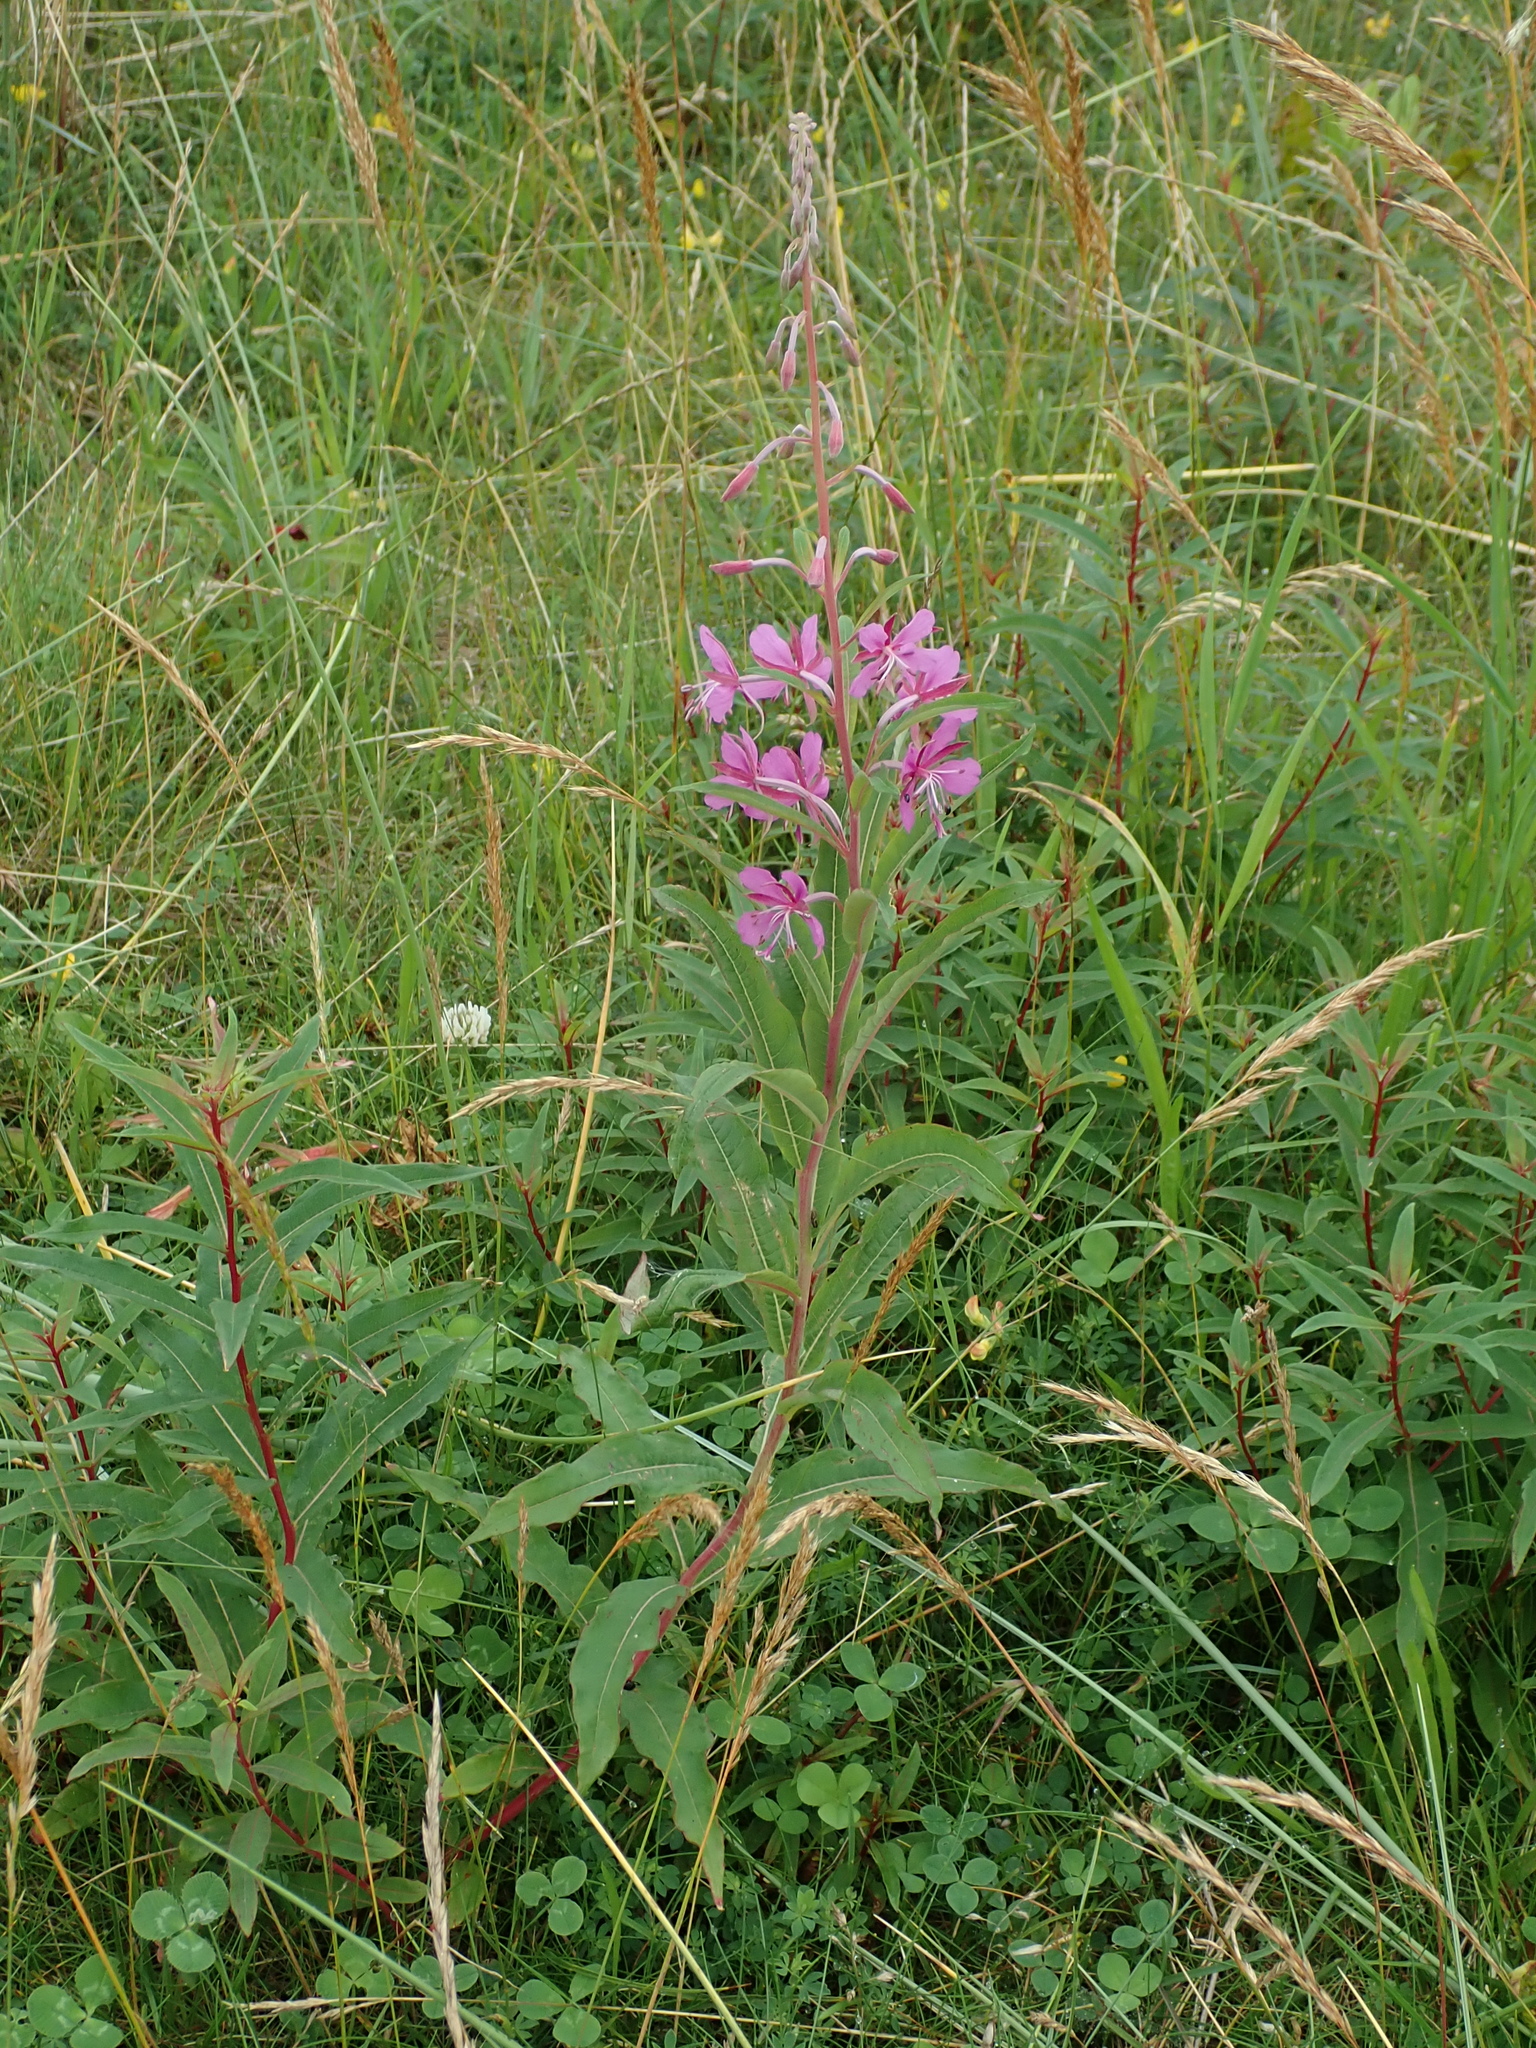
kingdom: Plantae
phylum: Tracheophyta
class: Magnoliopsida
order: Myrtales
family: Onagraceae
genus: Chamaenerion
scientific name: Chamaenerion angustifolium
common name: Fireweed
